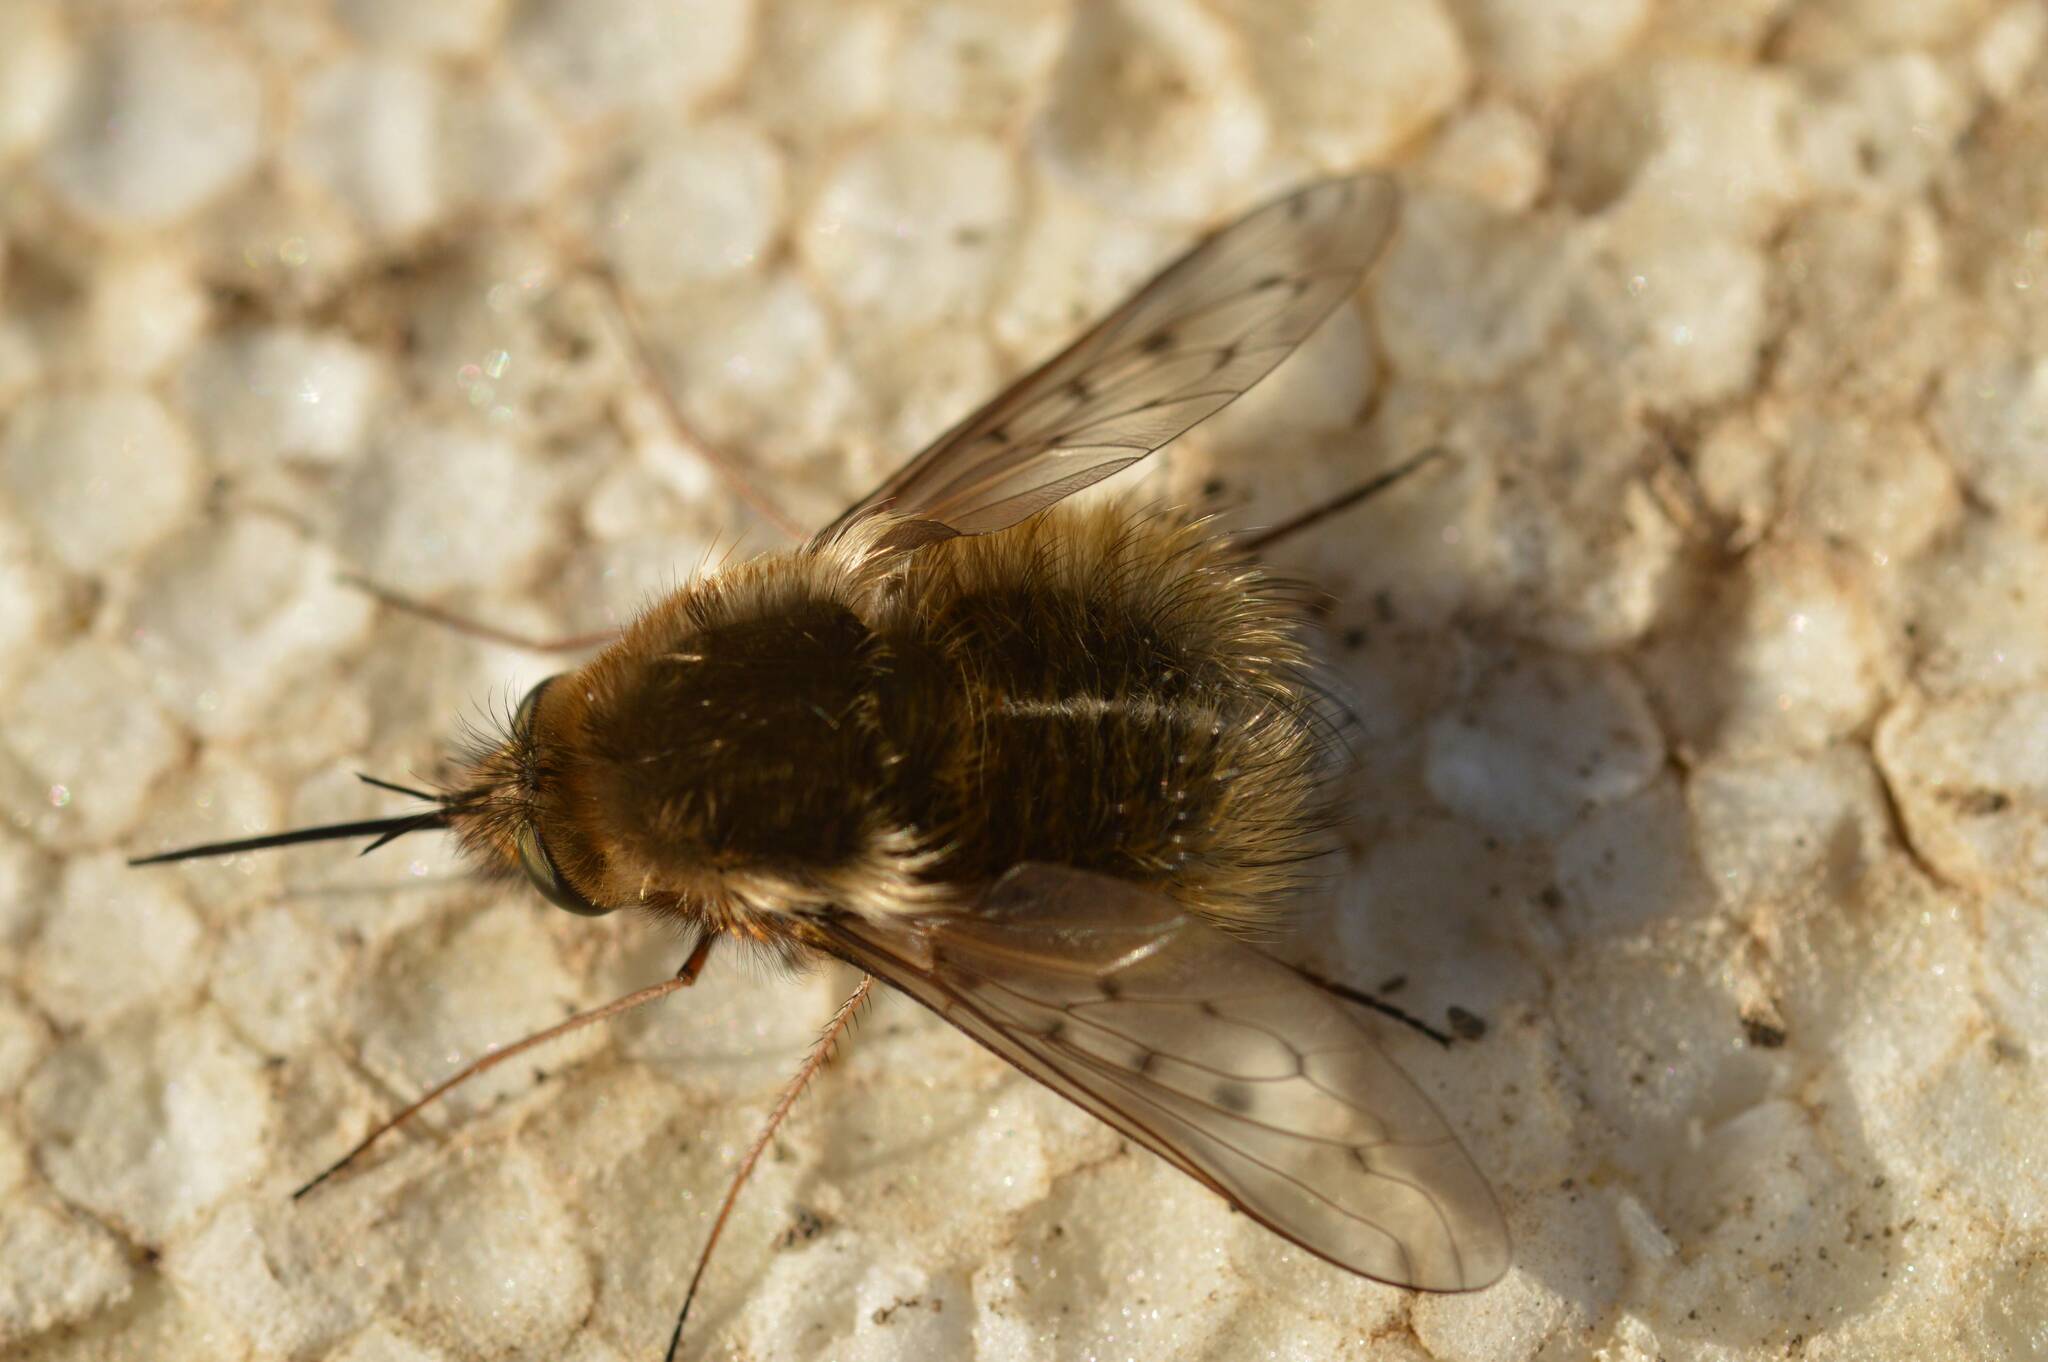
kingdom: Animalia
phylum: Arthropoda
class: Insecta
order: Diptera
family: Bombyliidae
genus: Bombylius
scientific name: Bombylius medius
